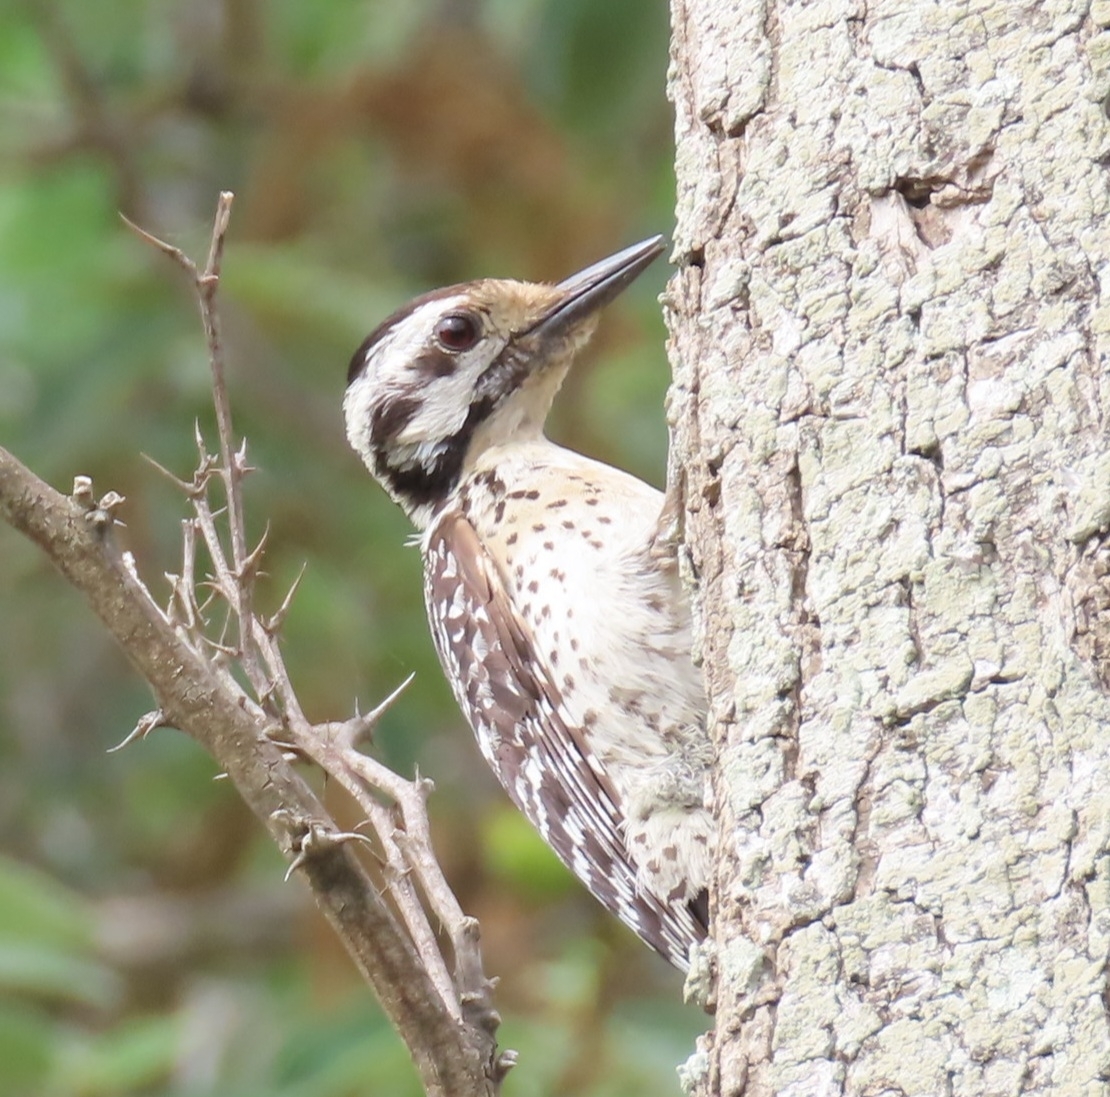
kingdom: Animalia
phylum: Chordata
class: Aves
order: Piciformes
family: Picidae
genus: Dryobates
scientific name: Dryobates scalaris
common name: Ladder-backed woodpecker
